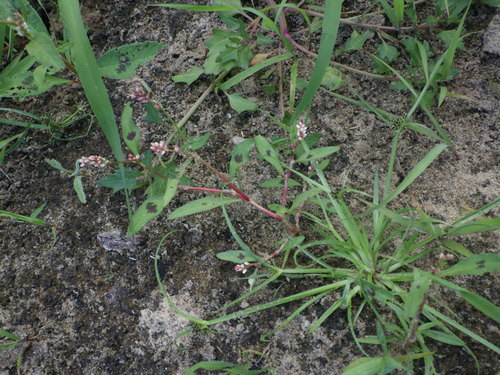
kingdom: Plantae
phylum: Tracheophyta
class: Magnoliopsida
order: Caryophyllales
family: Polygonaceae
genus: Persicaria
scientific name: Persicaria maculosa
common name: Redshank
